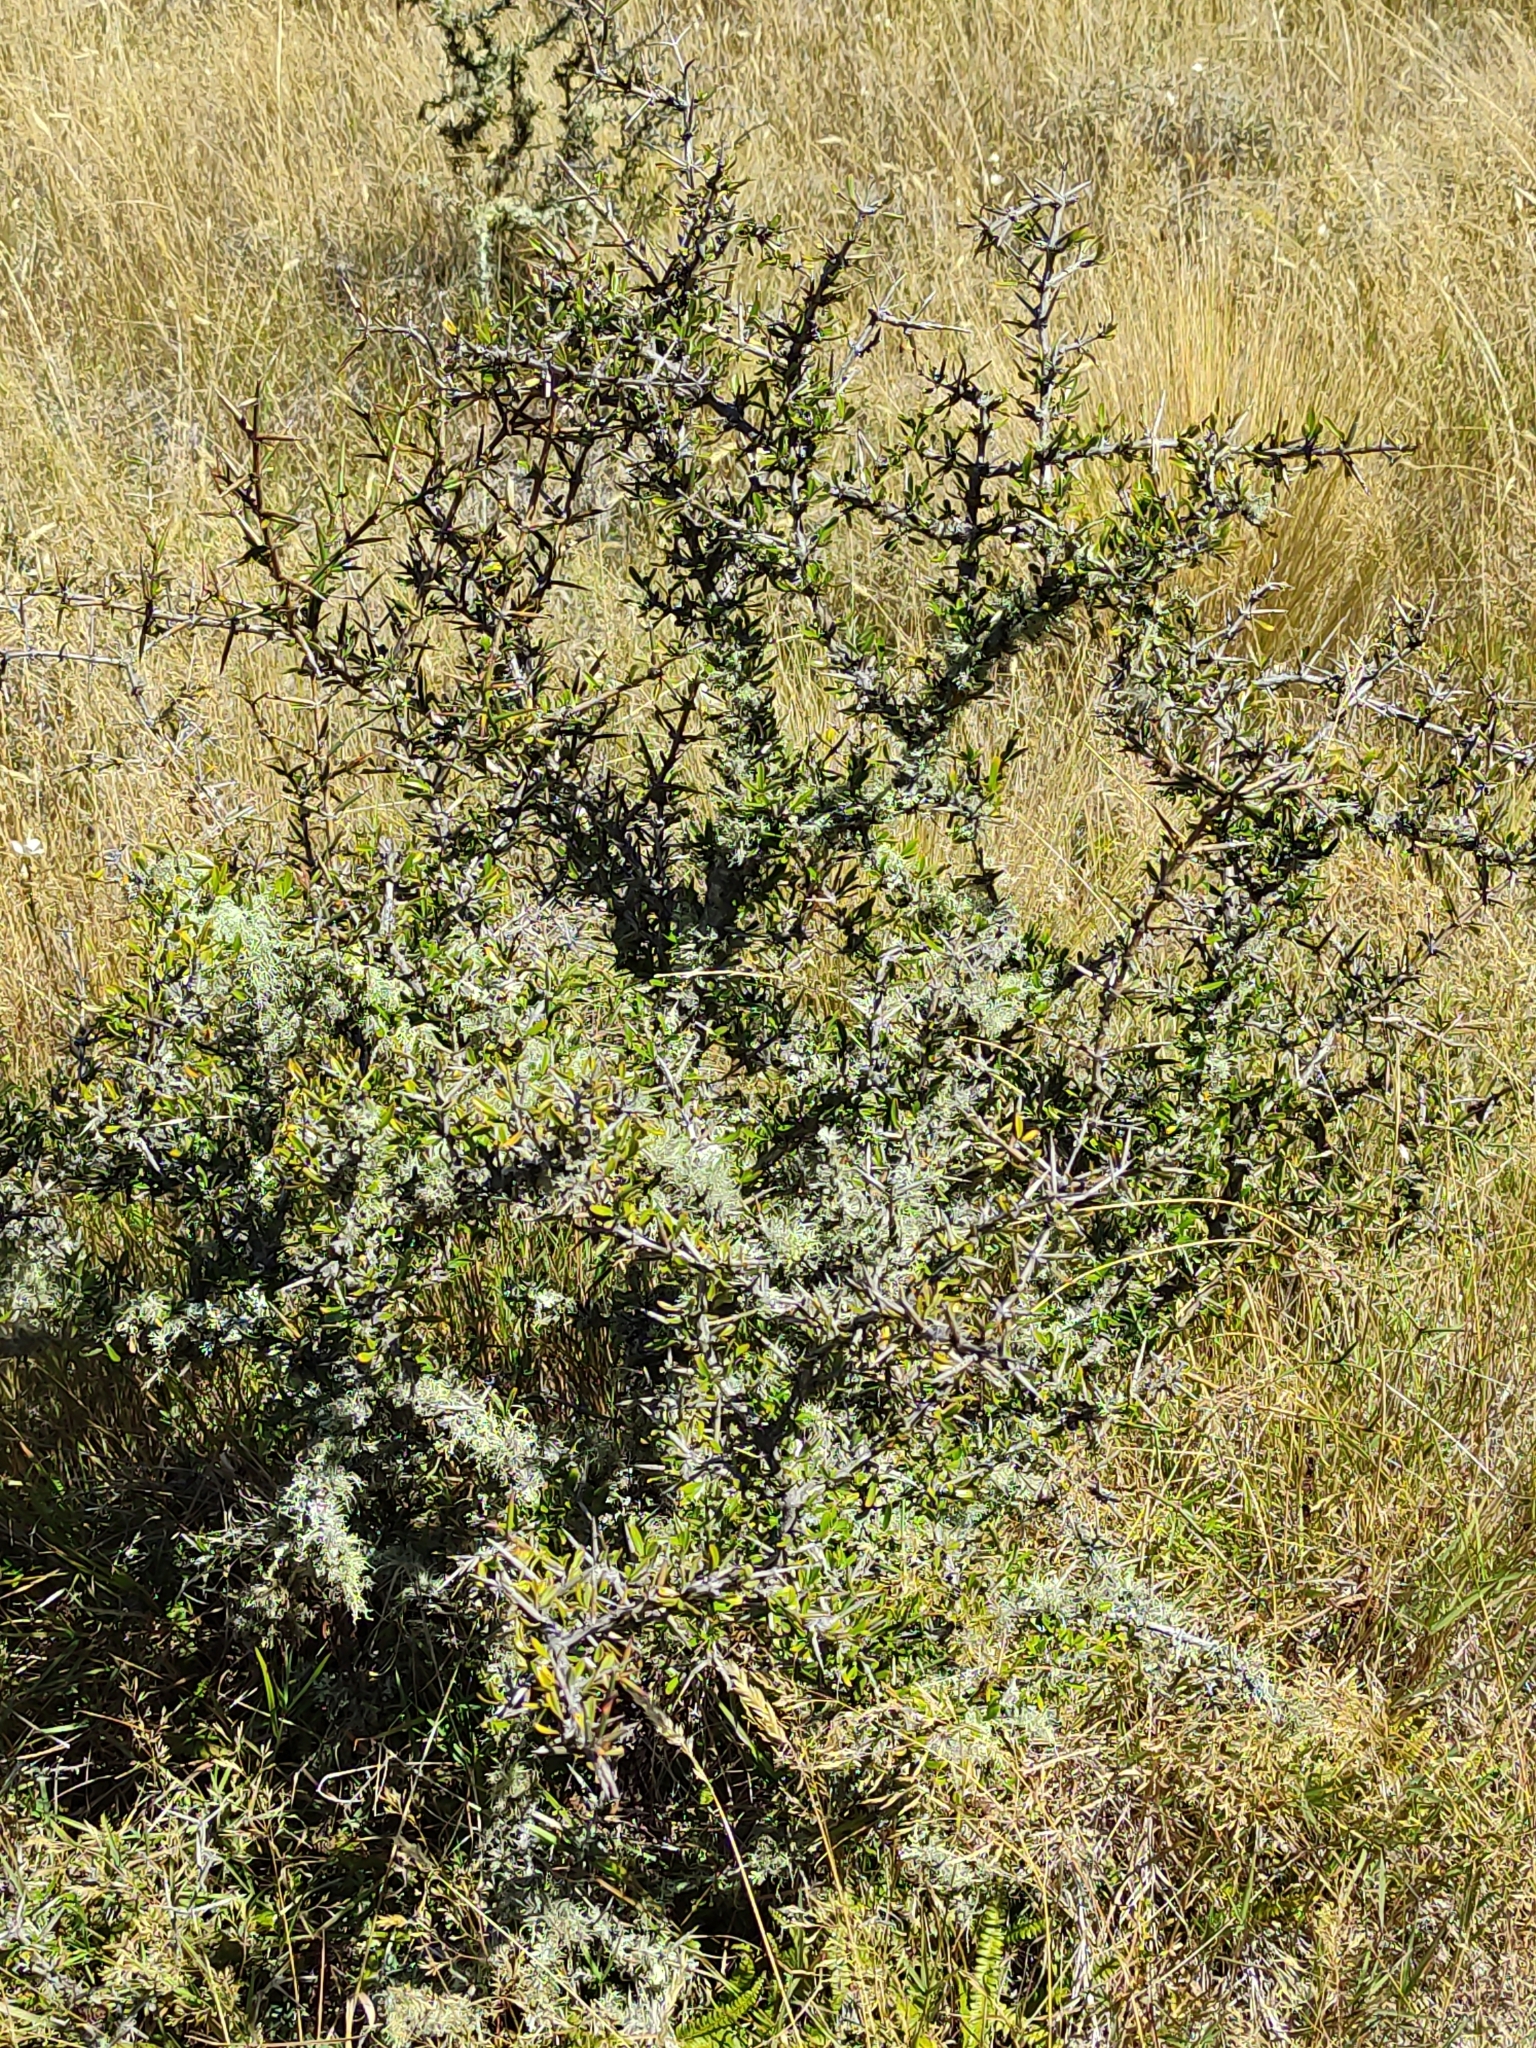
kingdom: Plantae
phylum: Tracheophyta
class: Magnoliopsida
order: Rosales
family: Rhamnaceae
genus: Discaria
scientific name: Discaria toumatou
